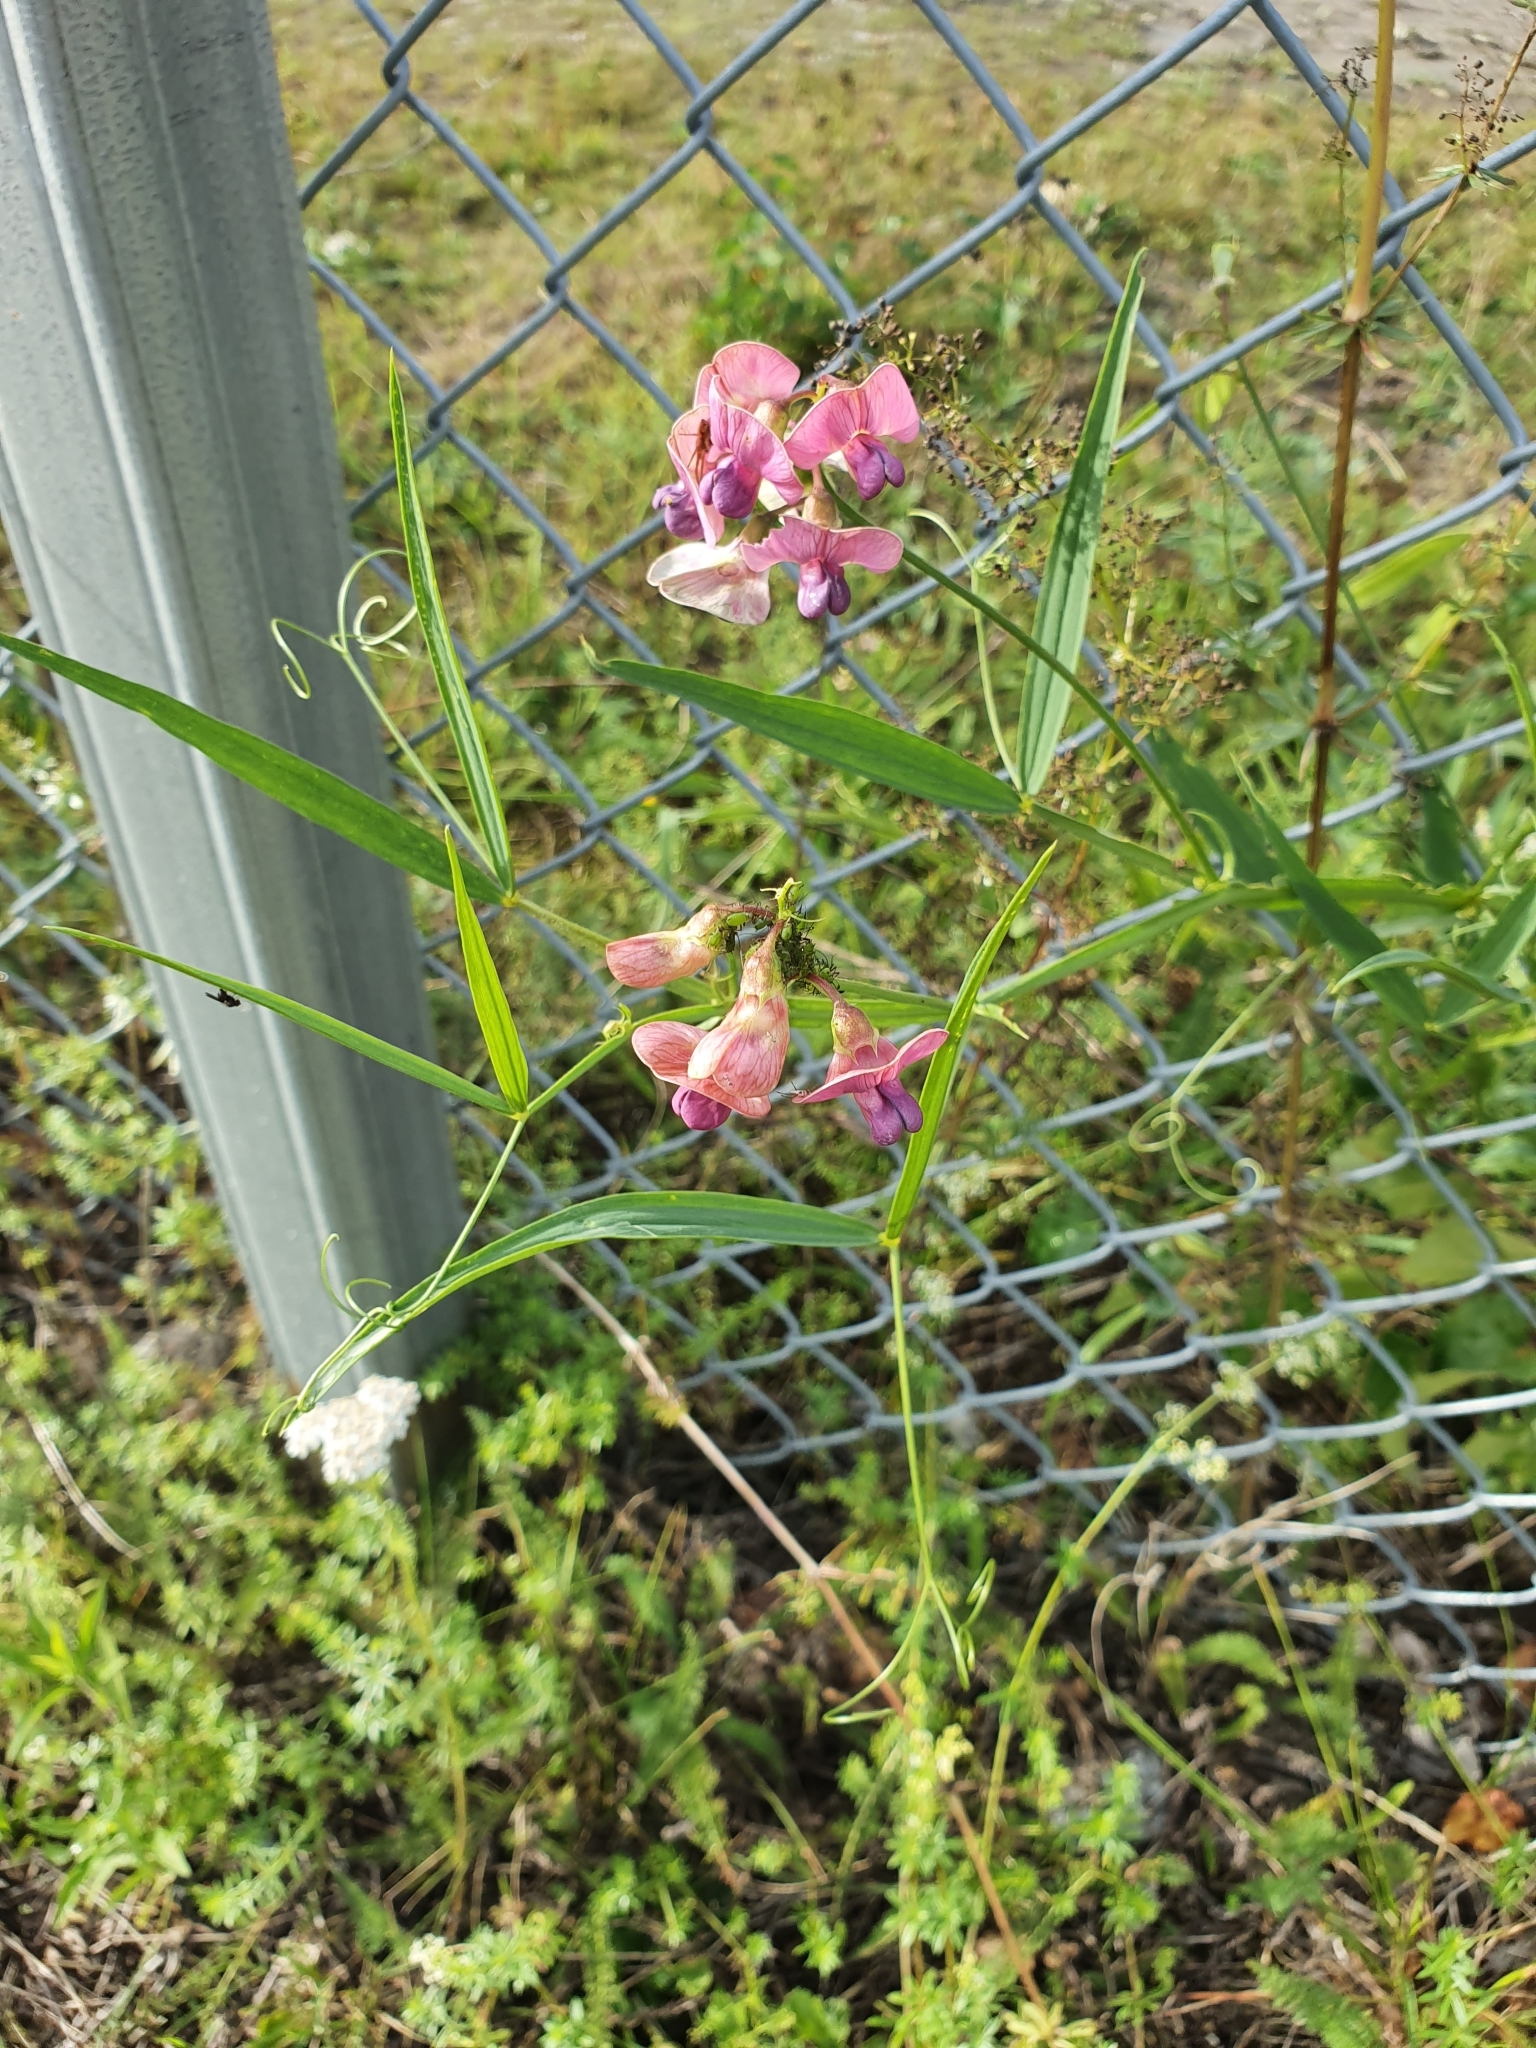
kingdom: Plantae
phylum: Tracheophyta
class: Magnoliopsida
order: Fabales
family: Fabaceae
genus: Lathyrus
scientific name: Lathyrus sylvestris
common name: Flat pea
